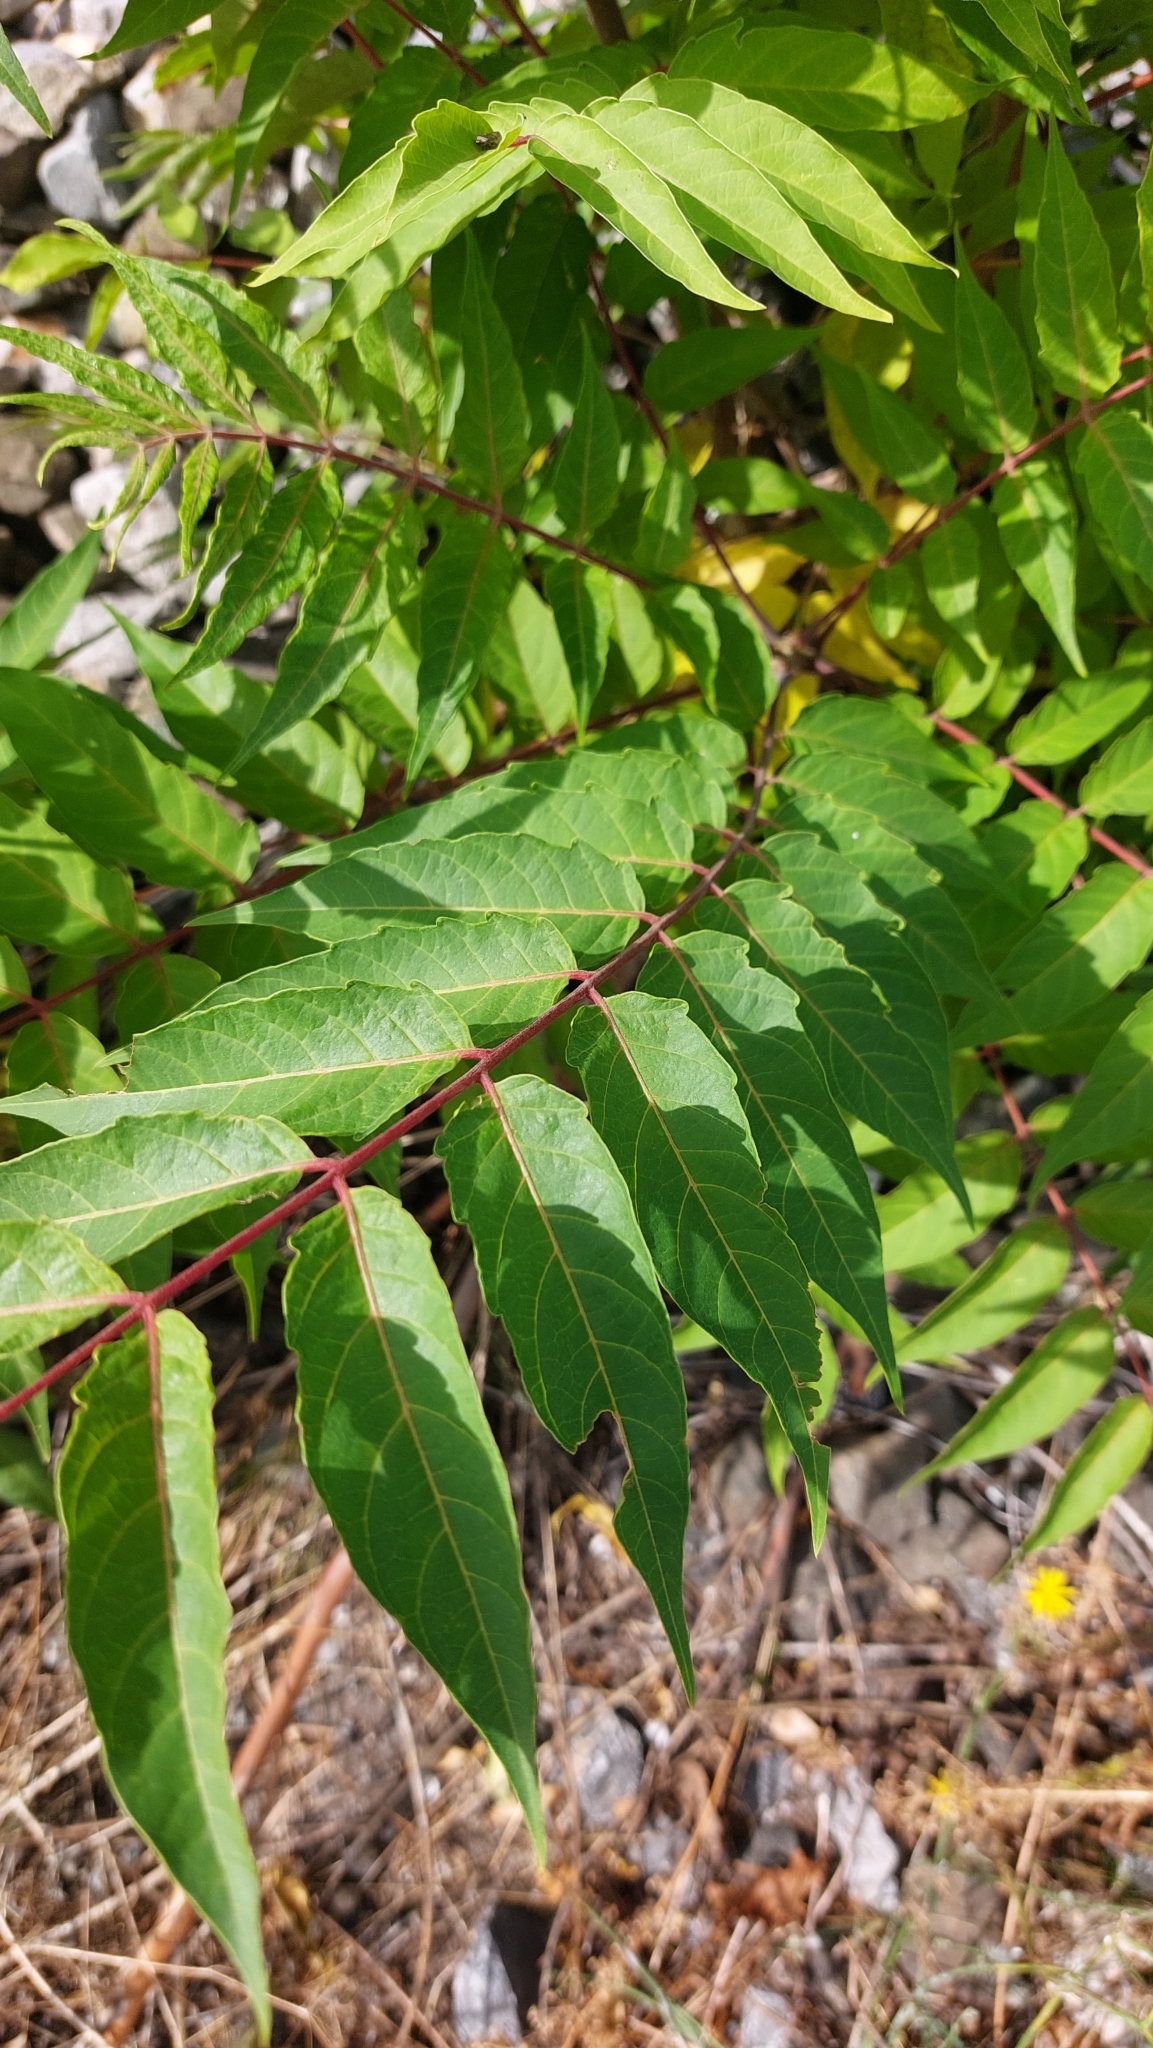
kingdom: Plantae
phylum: Tracheophyta
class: Magnoliopsida
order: Sapindales
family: Simaroubaceae
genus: Ailanthus
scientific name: Ailanthus altissima
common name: Tree-of-heaven
